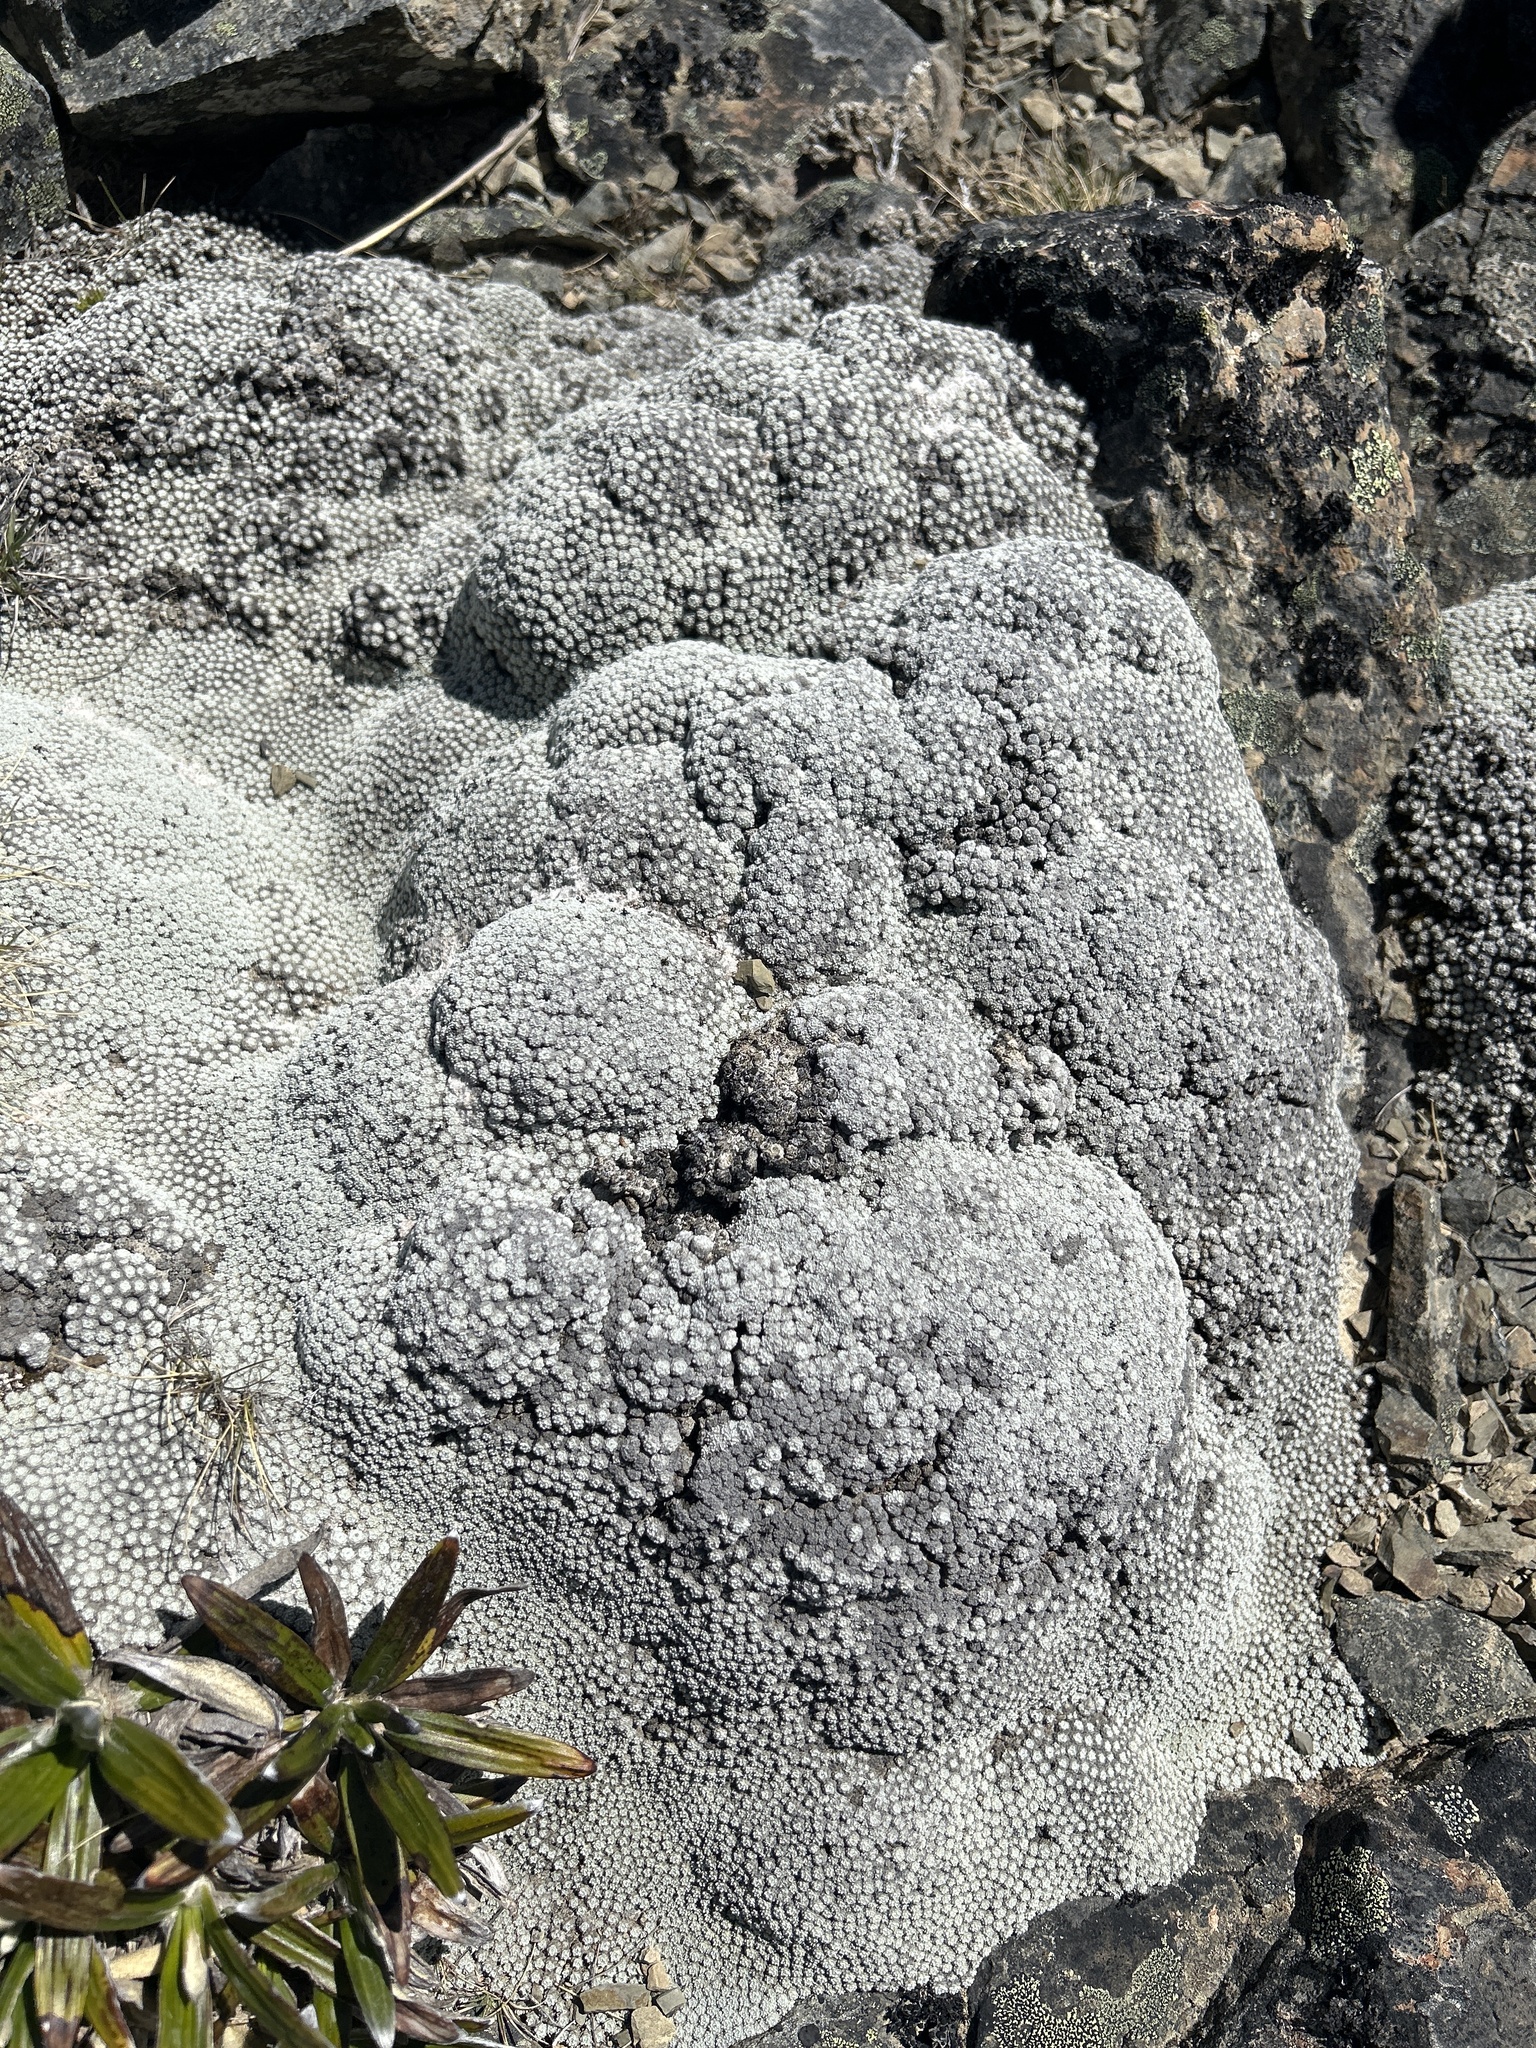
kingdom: Plantae
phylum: Tracheophyta
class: Magnoliopsida
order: Asterales
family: Asteraceae
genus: Raoulia
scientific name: Raoulia bryoides
